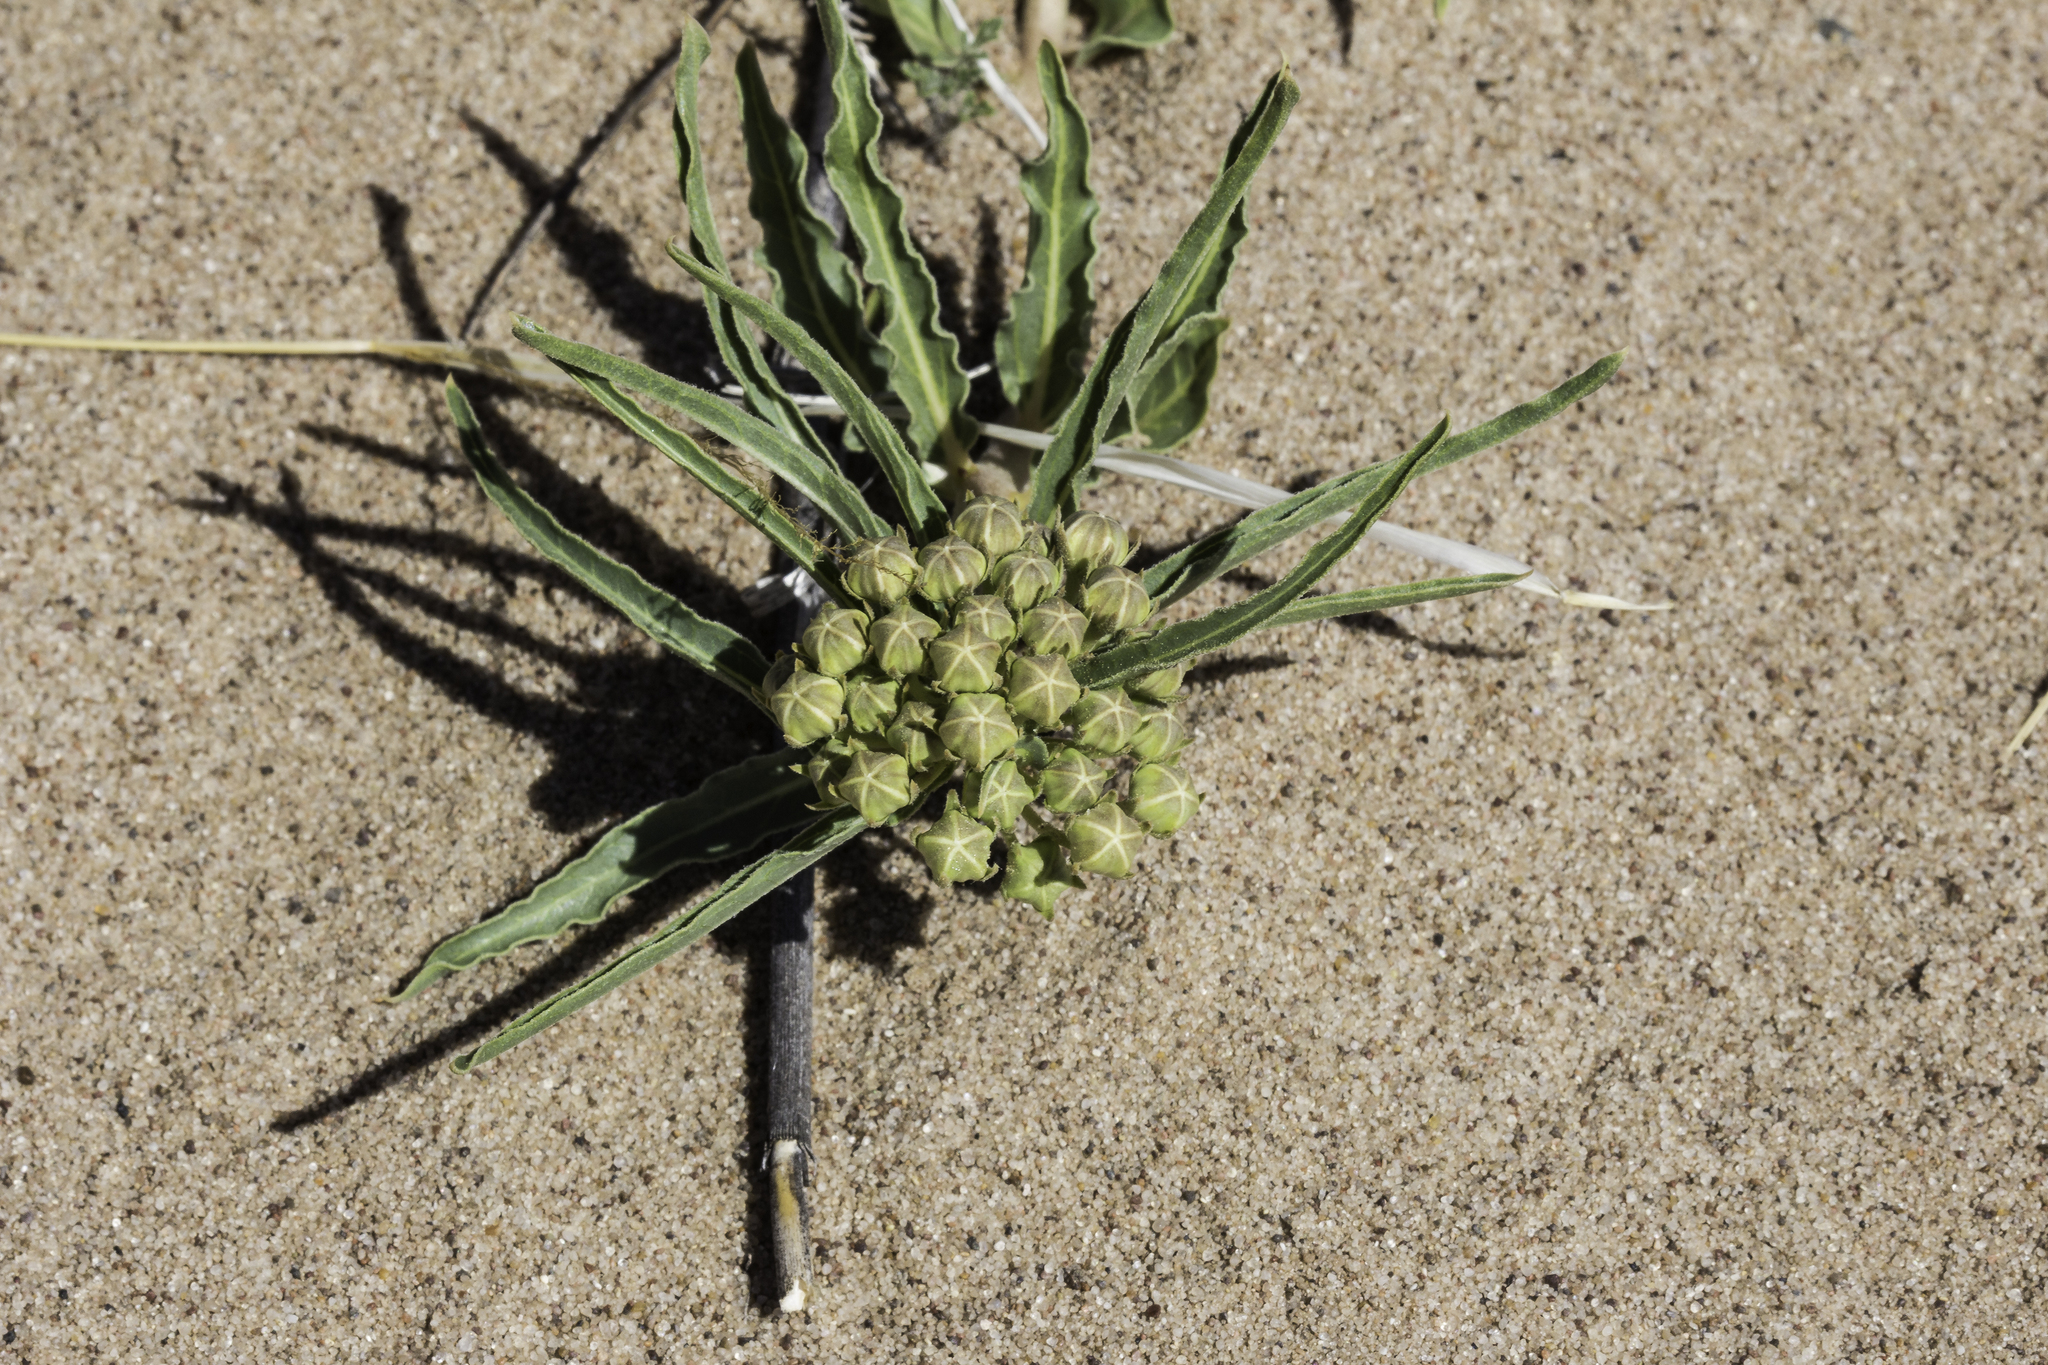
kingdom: Plantae
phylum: Tracheophyta
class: Magnoliopsida
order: Gentianales
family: Apocynaceae
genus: Asclepias
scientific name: Asclepias involucrata
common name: Dwarf milkweed
